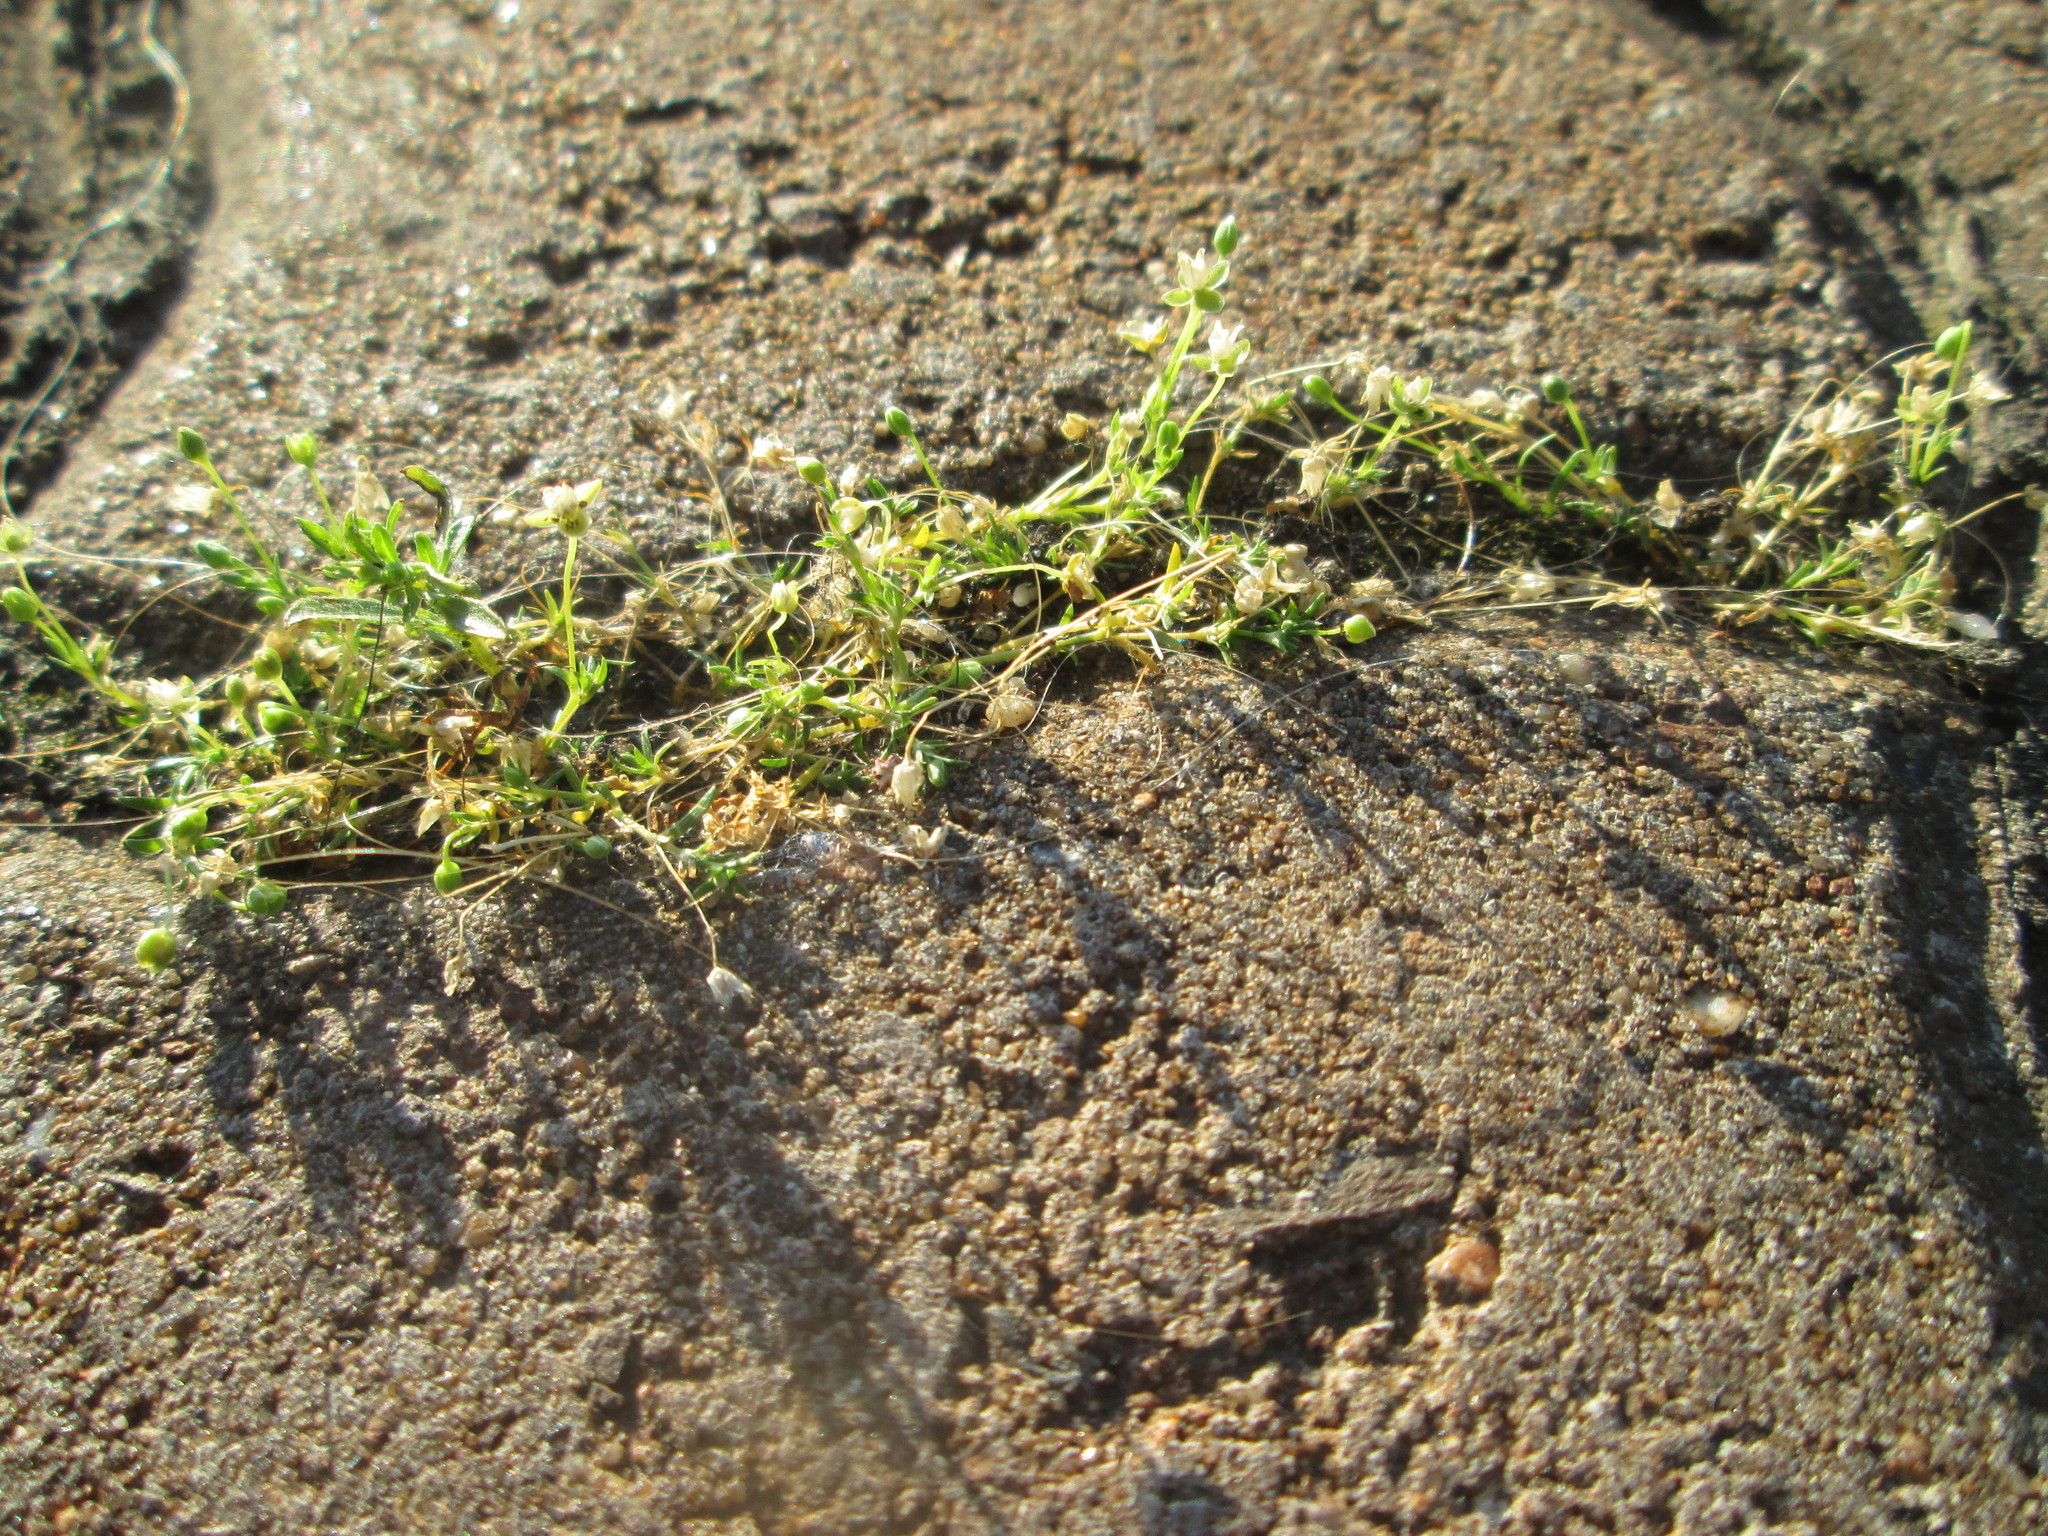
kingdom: Plantae
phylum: Tracheophyta
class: Magnoliopsida
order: Caryophyllales
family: Caryophyllaceae
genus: Sagina
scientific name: Sagina procumbens
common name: Procumbent pearlwort
